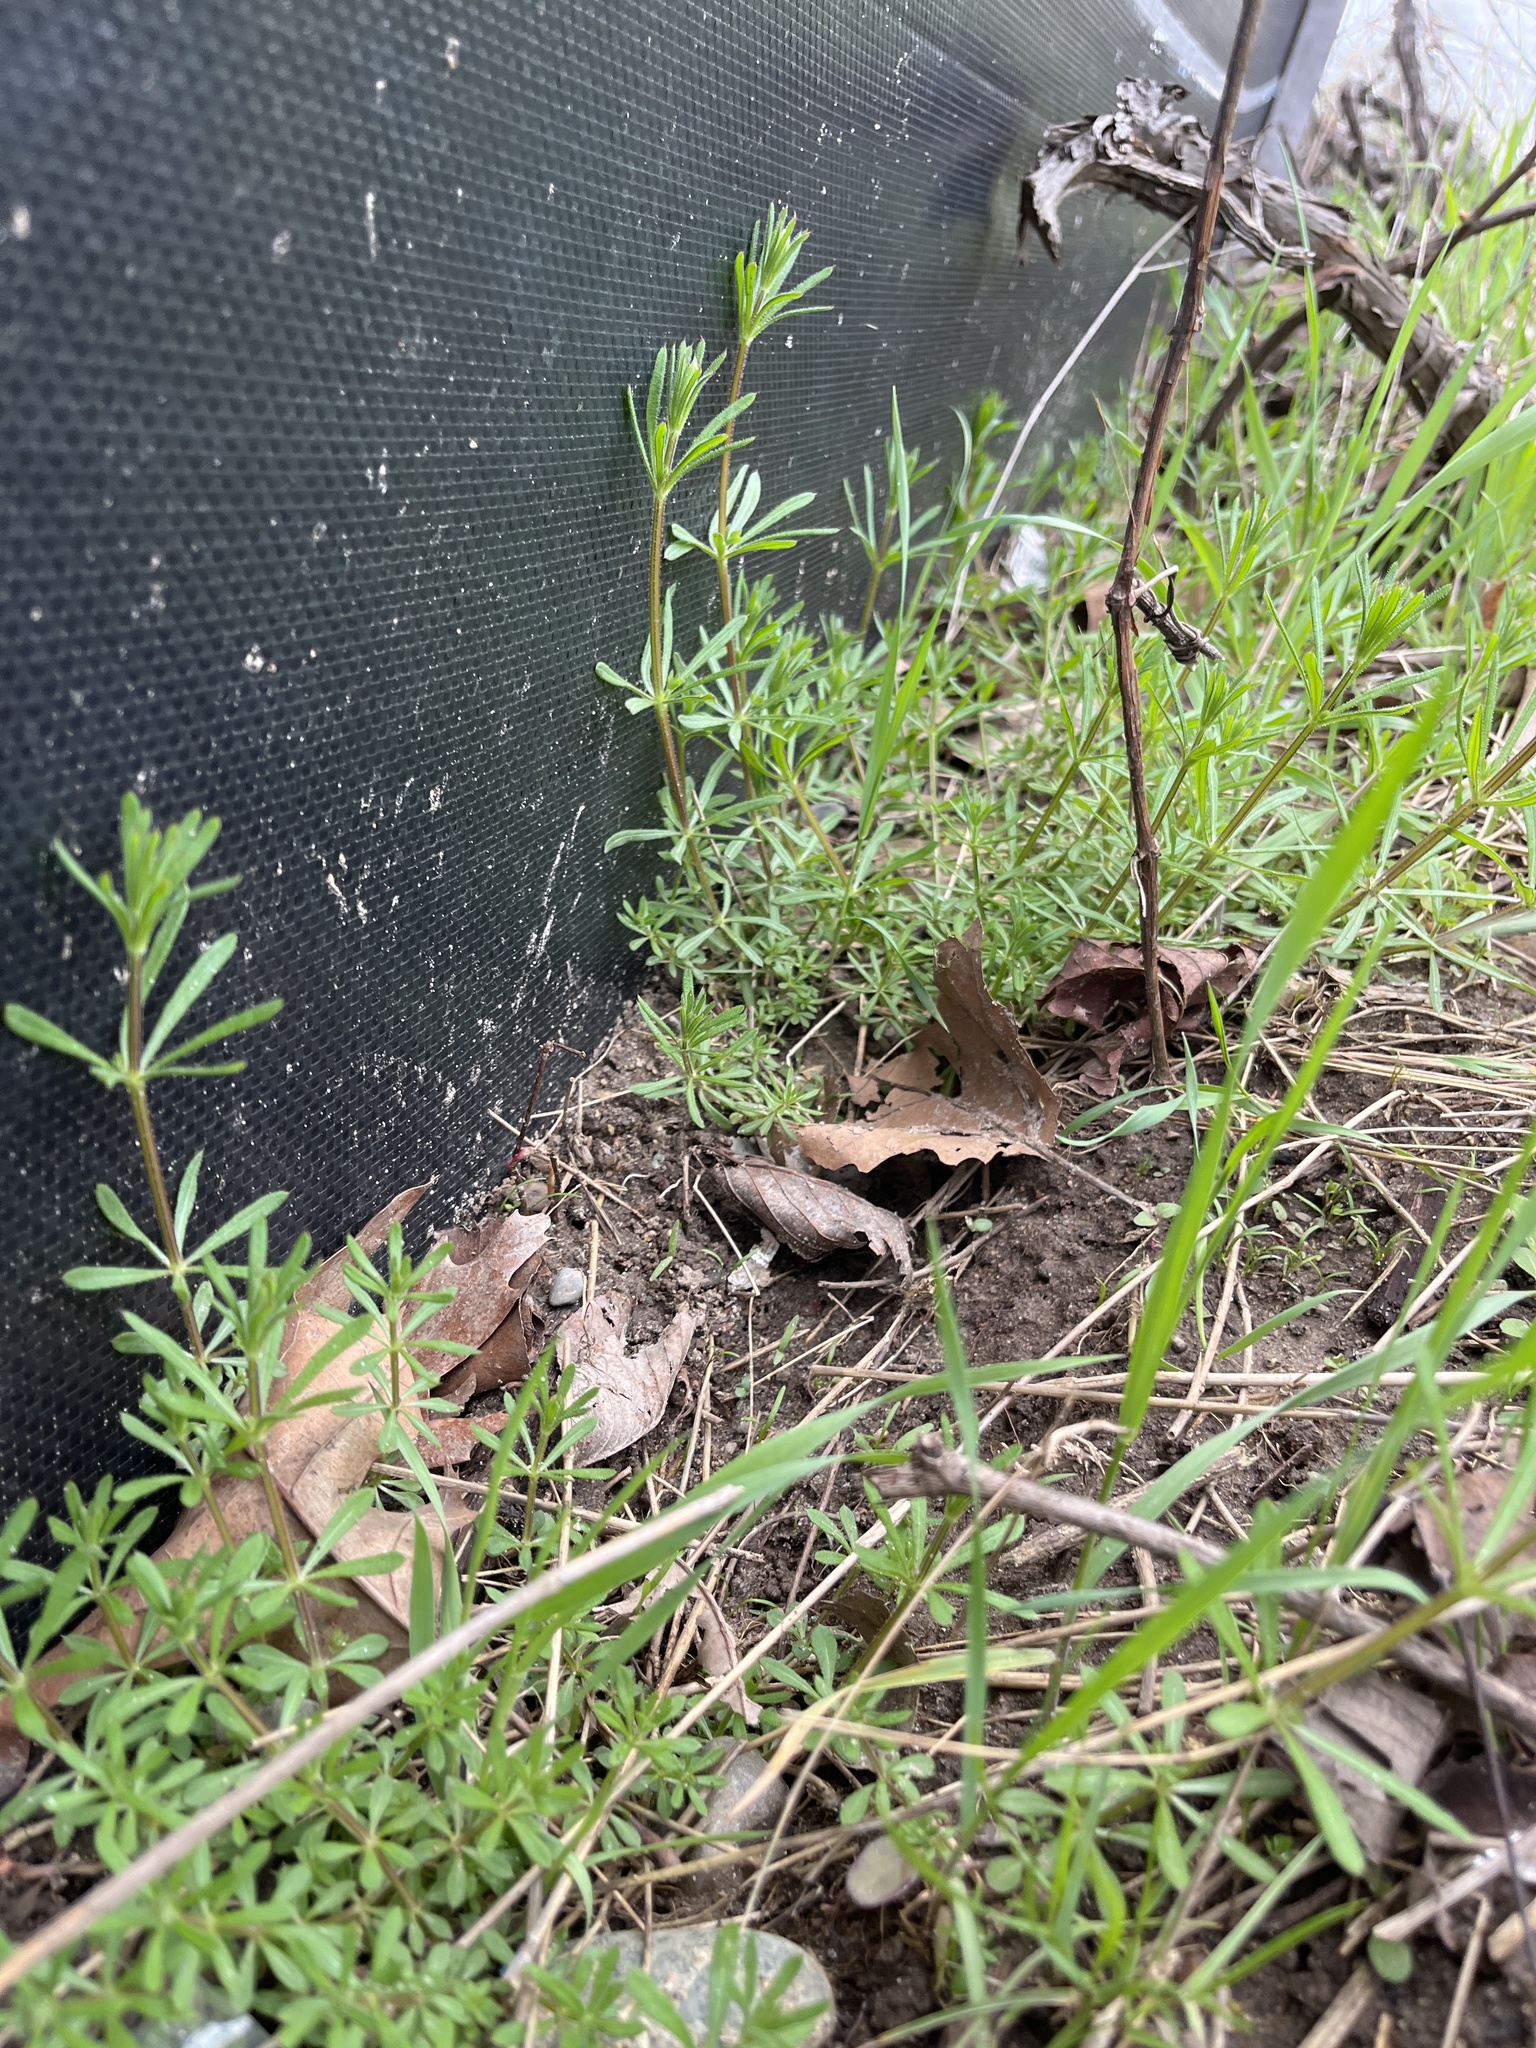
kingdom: Plantae
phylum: Tracheophyta
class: Magnoliopsida
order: Gentianales
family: Rubiaceae
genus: Galium
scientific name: Galium aparine
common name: Cleavers
